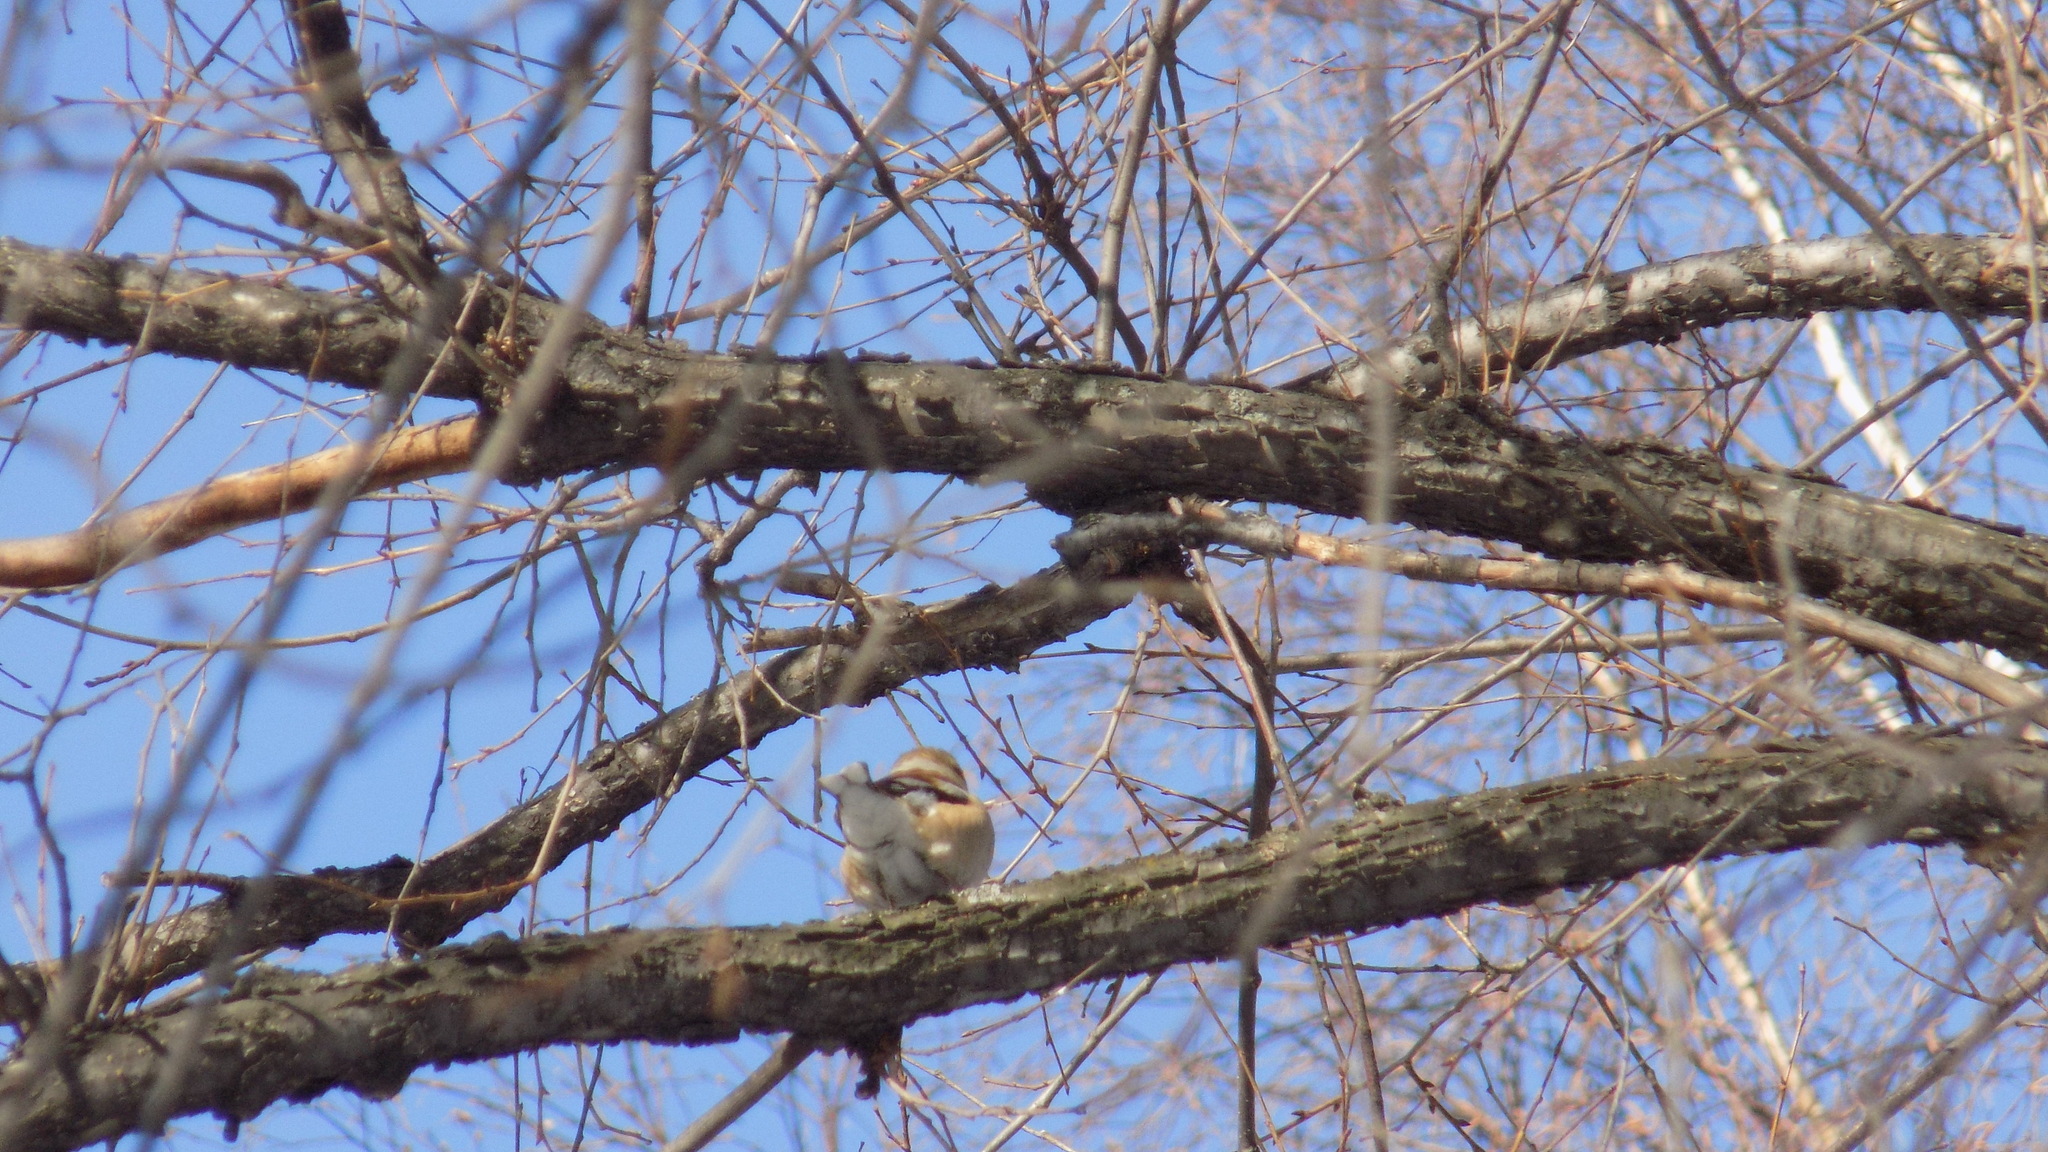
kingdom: Animalia
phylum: Chordata
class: Aves
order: Passeriformes
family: Fringillidae
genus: Coccothraustes
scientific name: Coccothraustes coccothraustes
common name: Hawfinch
